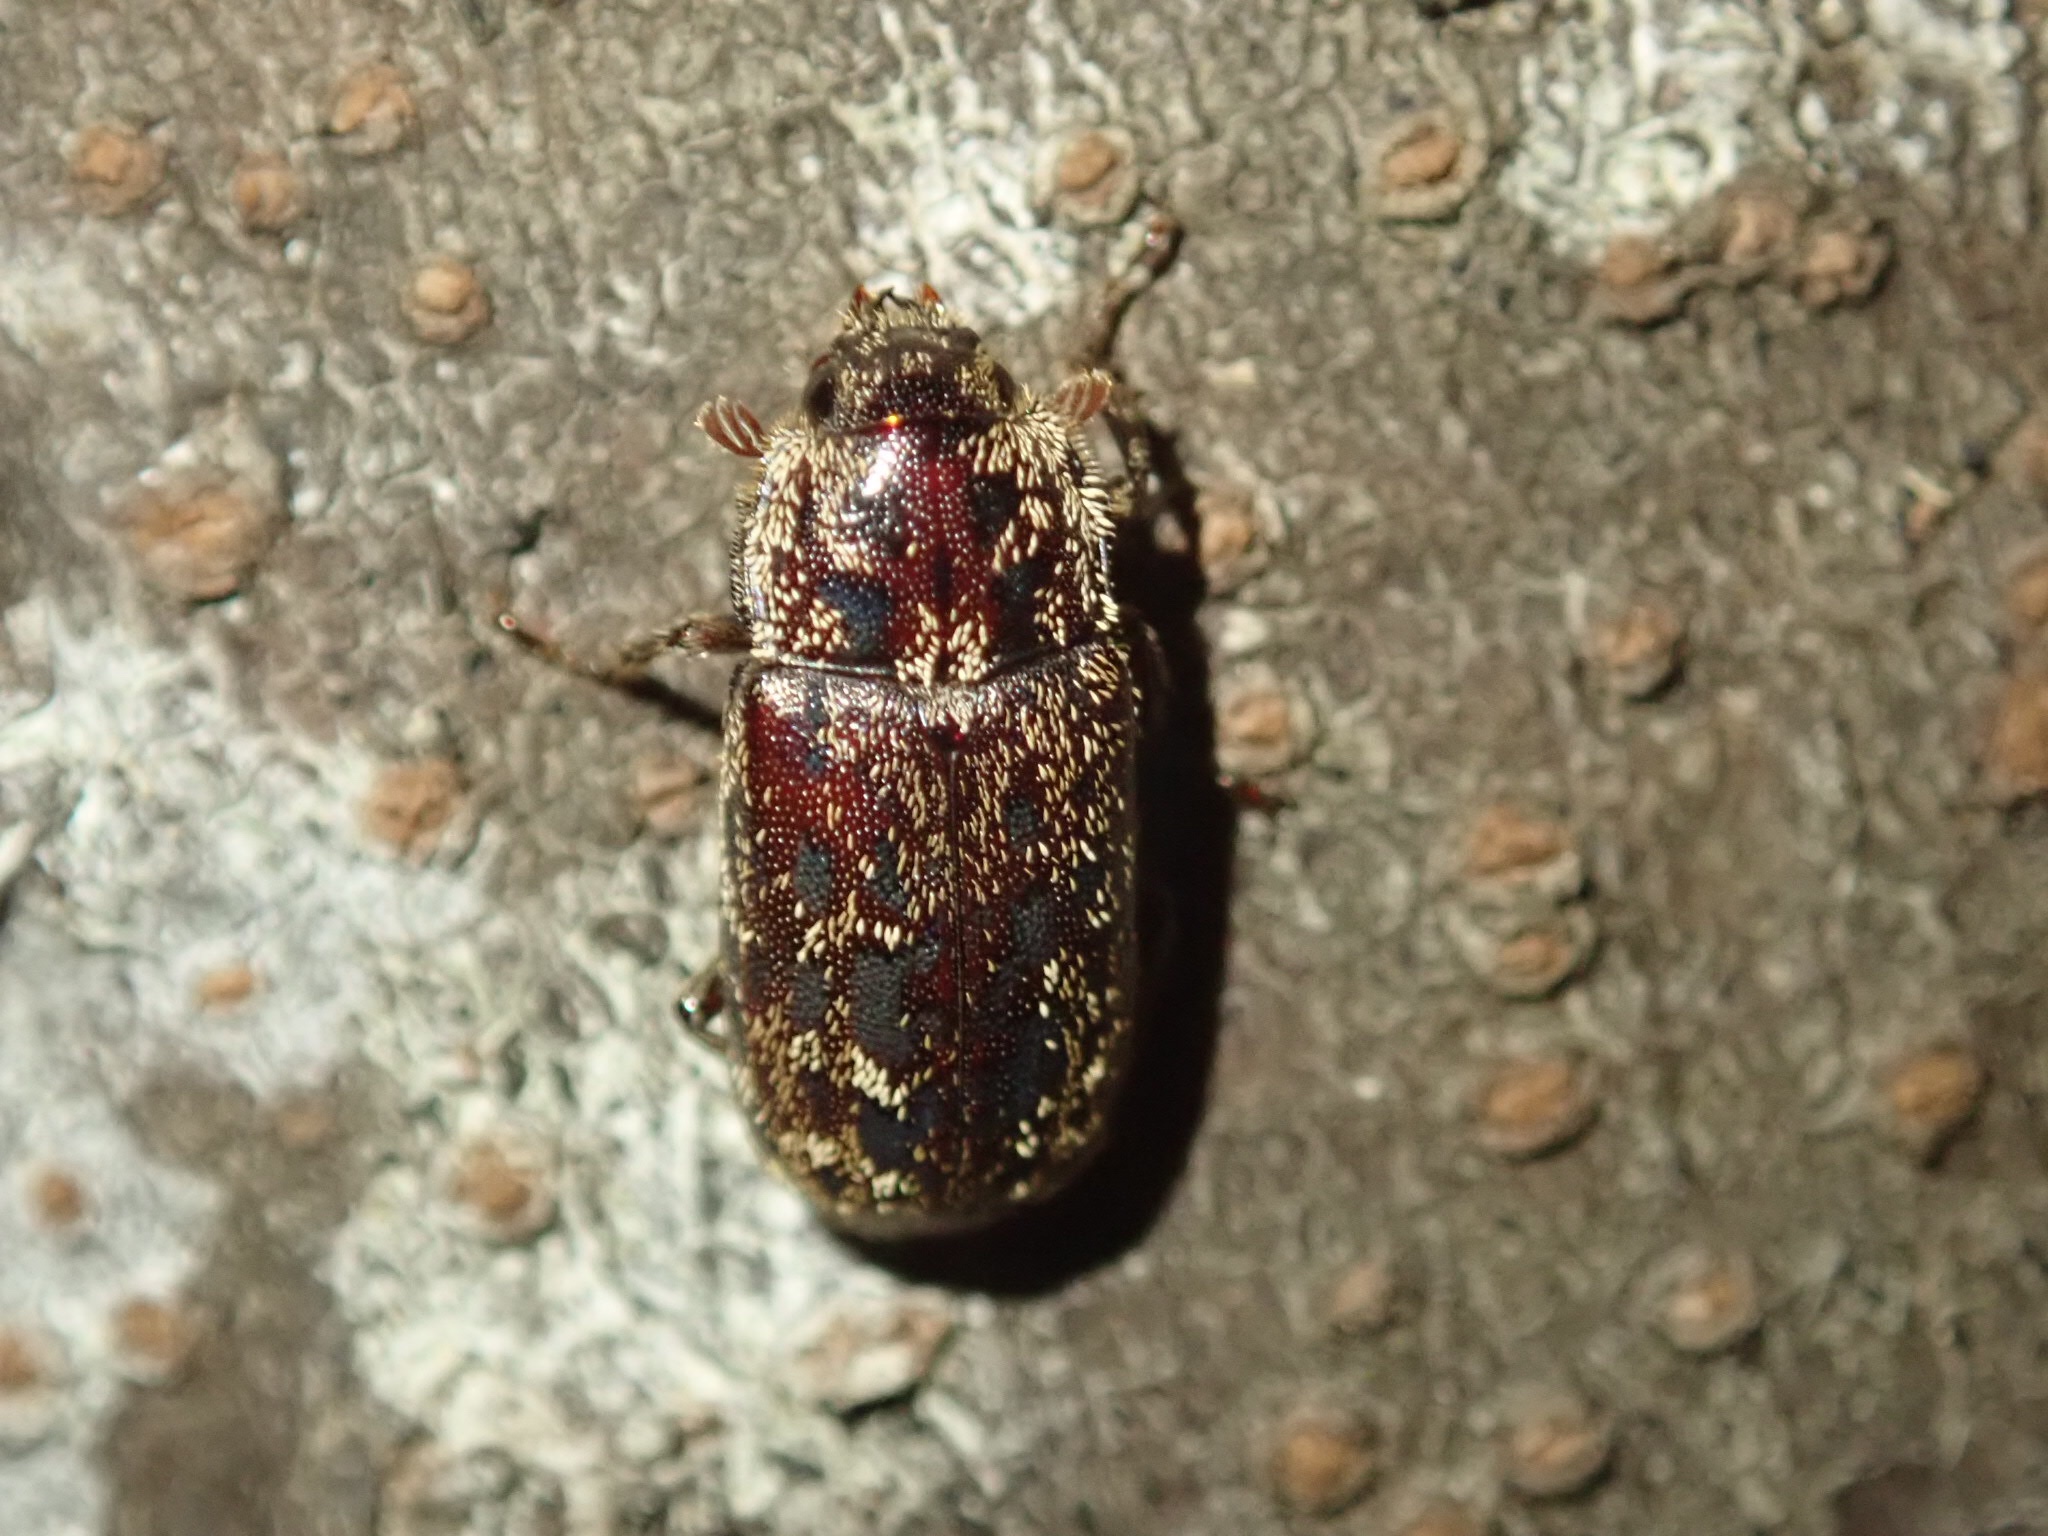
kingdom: Animalia
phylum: Arthropoda
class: Insecta
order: Coleoptera
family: Lucanidae
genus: Mitophyllus
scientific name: Mitophyllus irroratus
